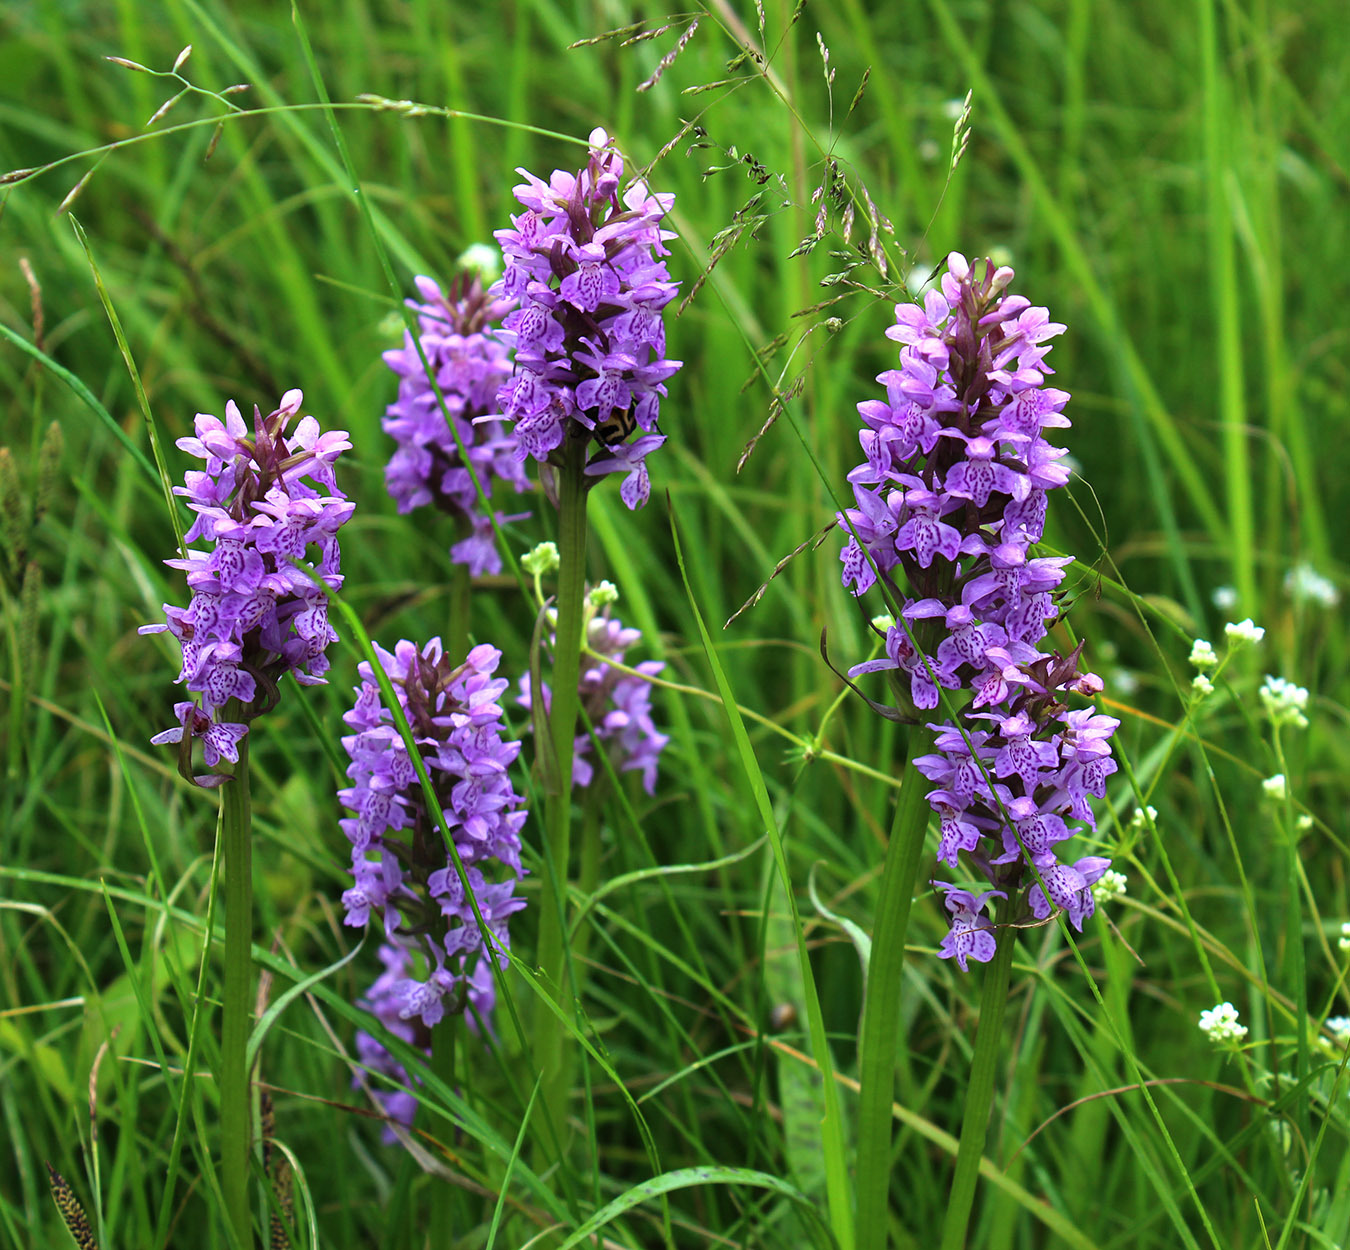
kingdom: Plantae
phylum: Tracheophyta
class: Liliopsida
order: Asparagales
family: Orchidaceae
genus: Dactylorhiza
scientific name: Dactylorhiza majalis
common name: Marsh orchid
